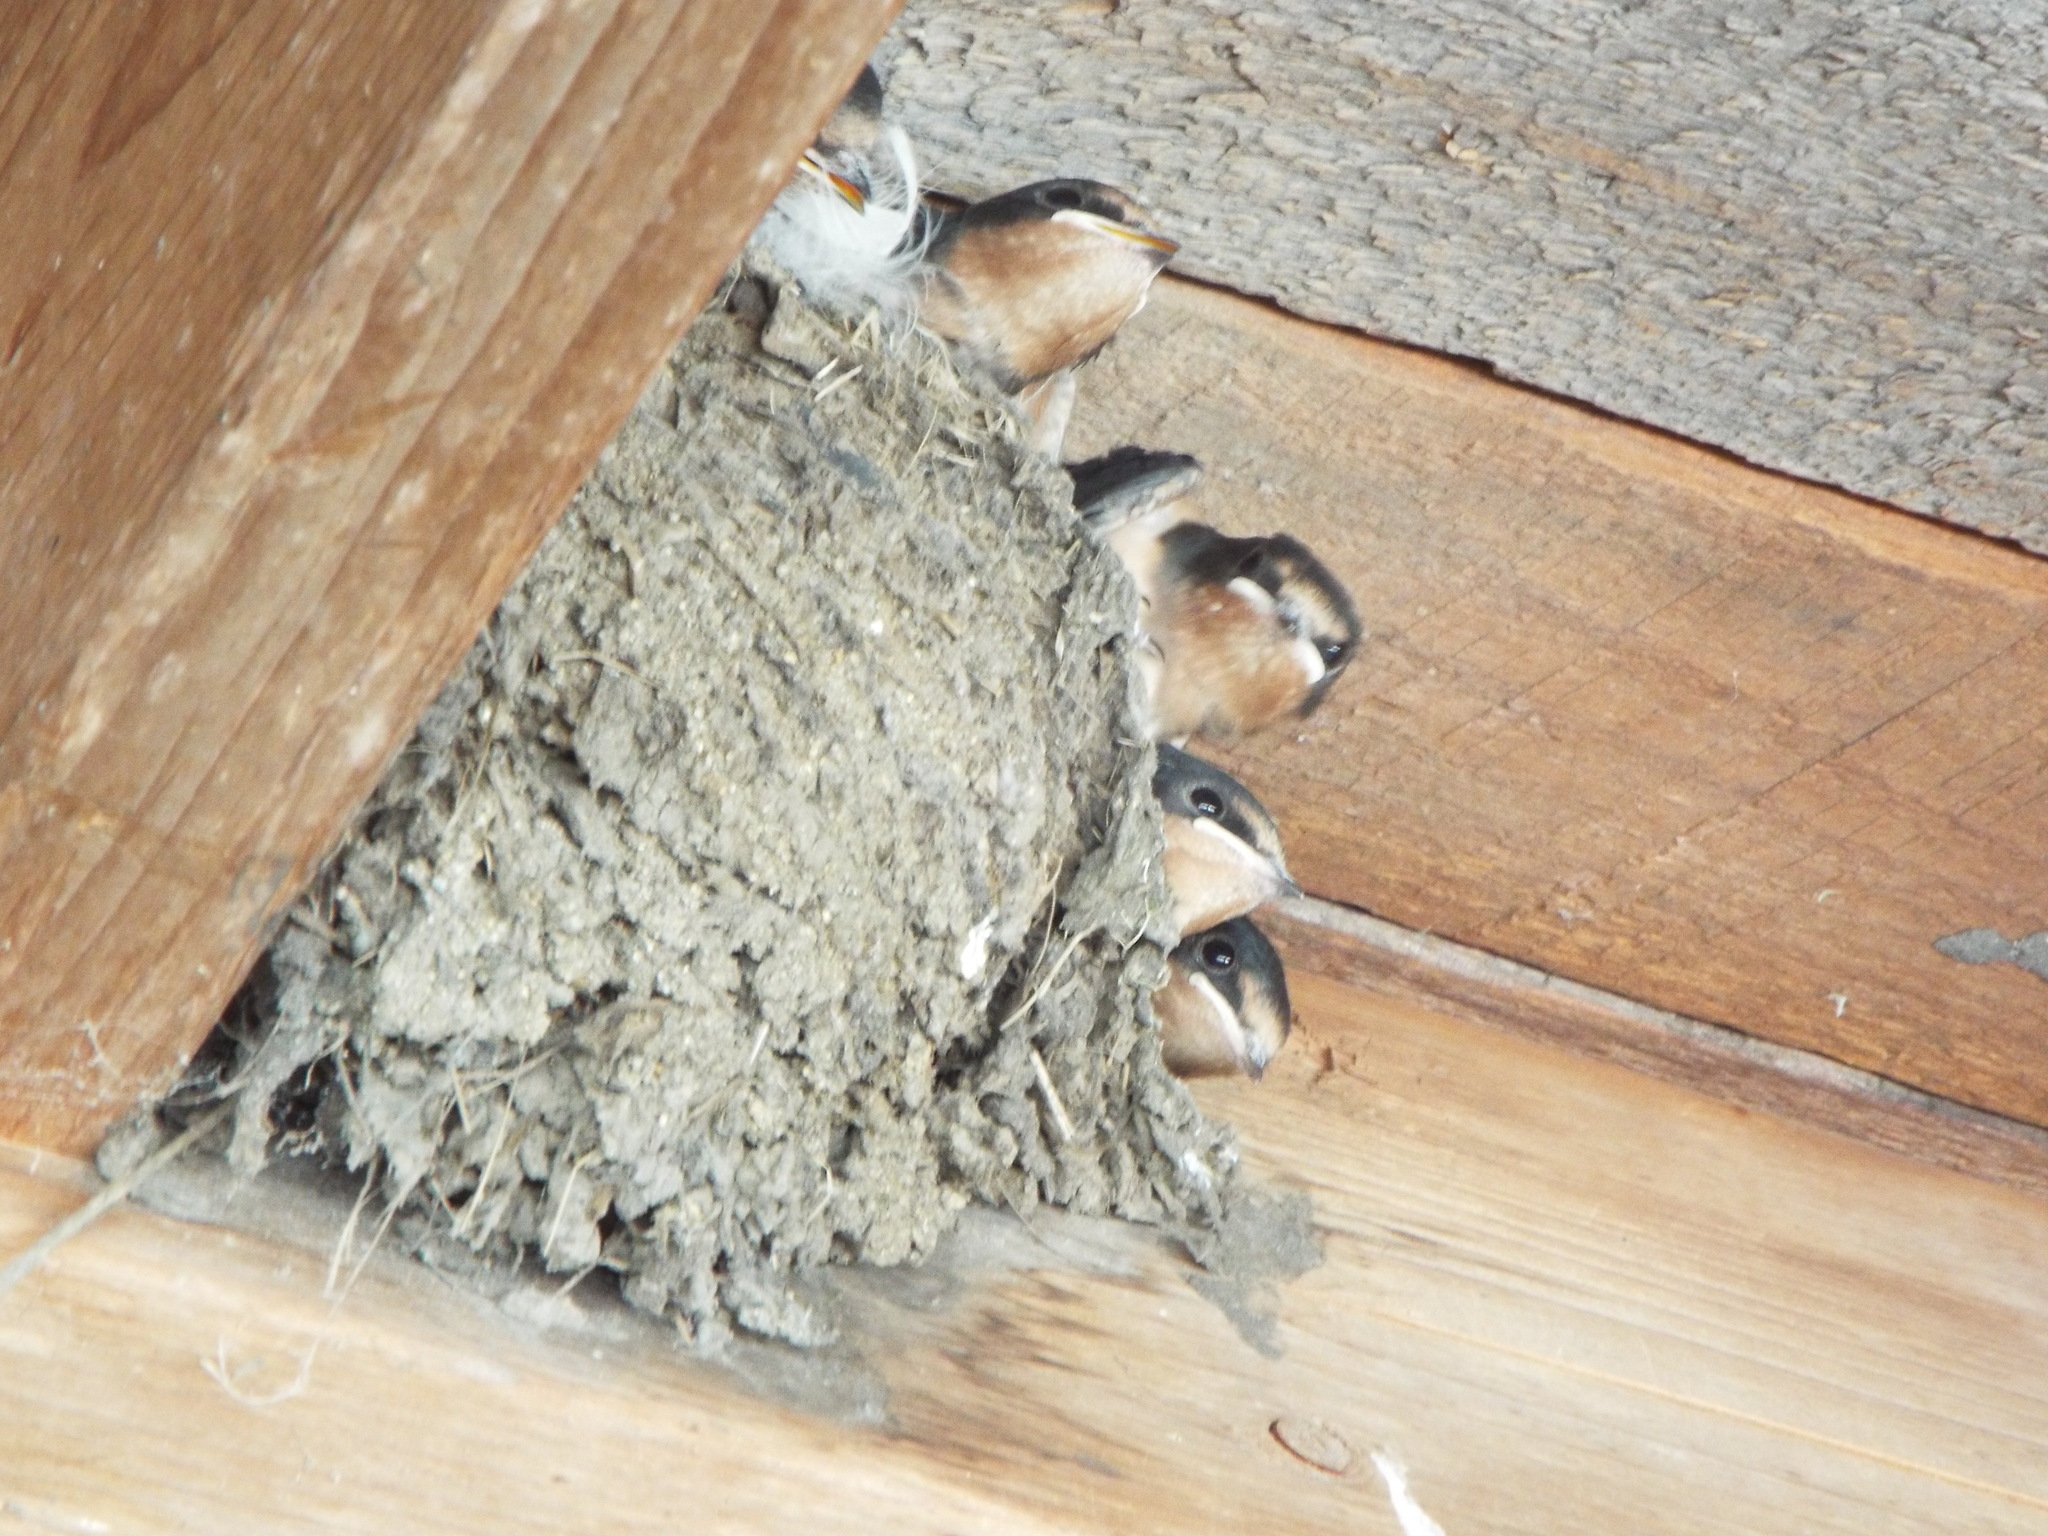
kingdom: Animalia
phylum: Chordata
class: Aves
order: Passeriformes
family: Hirundinidae
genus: Hirundo
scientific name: Hirundo rustica
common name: Barn swallow
